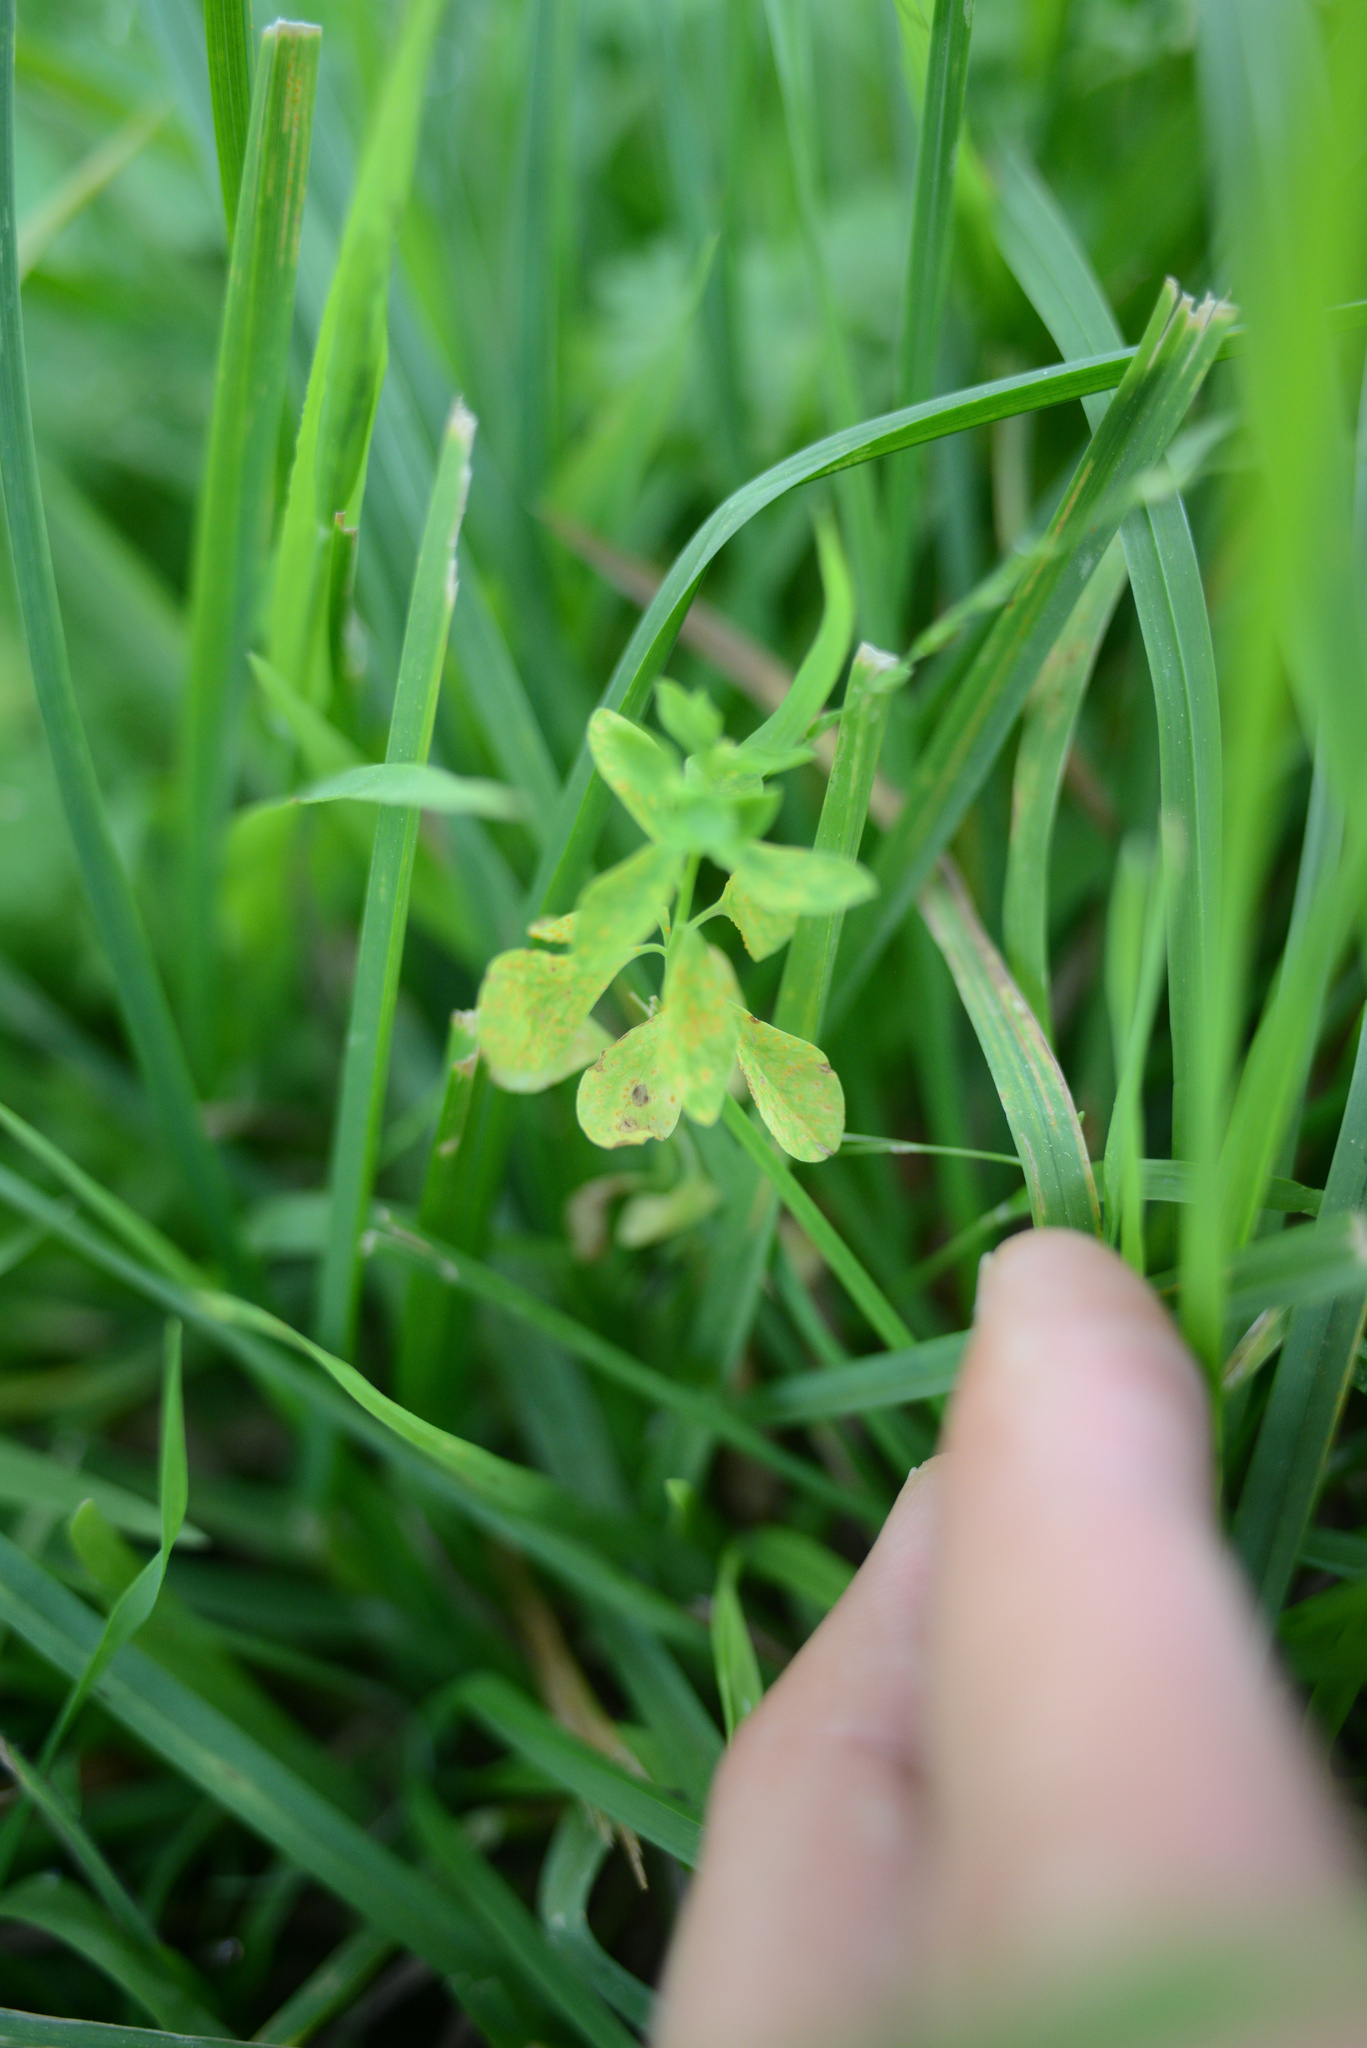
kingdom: Plantae
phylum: Tracheophyta
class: Magnoliopsida
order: Malpighiales
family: Euphorbiaceae
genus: Euphorbia
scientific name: Euphorbia peplus
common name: Petty spurge
